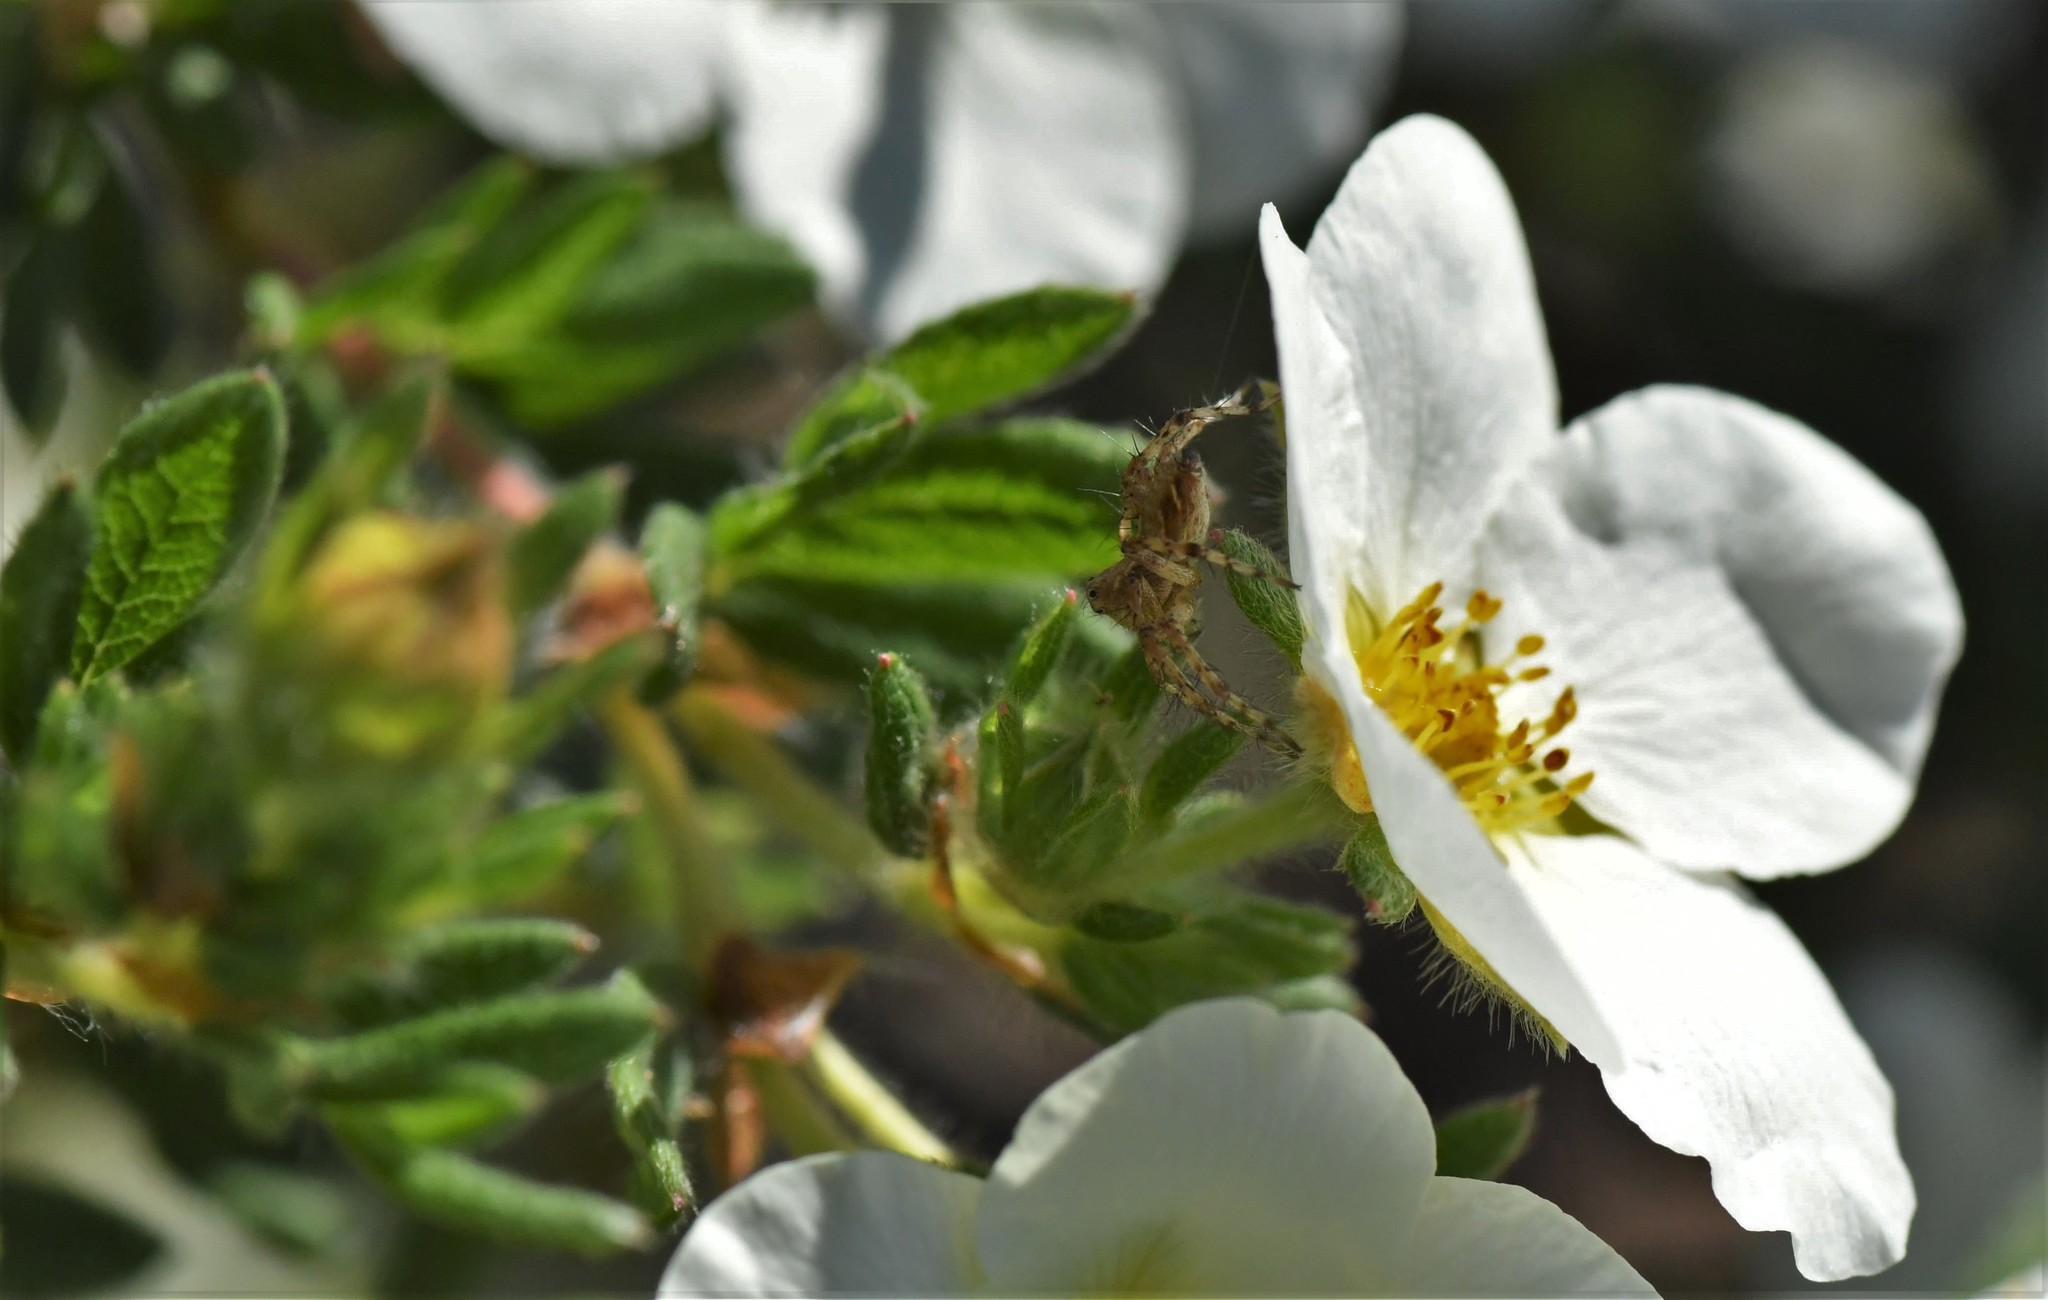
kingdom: Animalia
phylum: Arthropoda
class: Arachnida
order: Araneae
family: Oxyopidae
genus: Oxyopes
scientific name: Oxyopes scalaris
